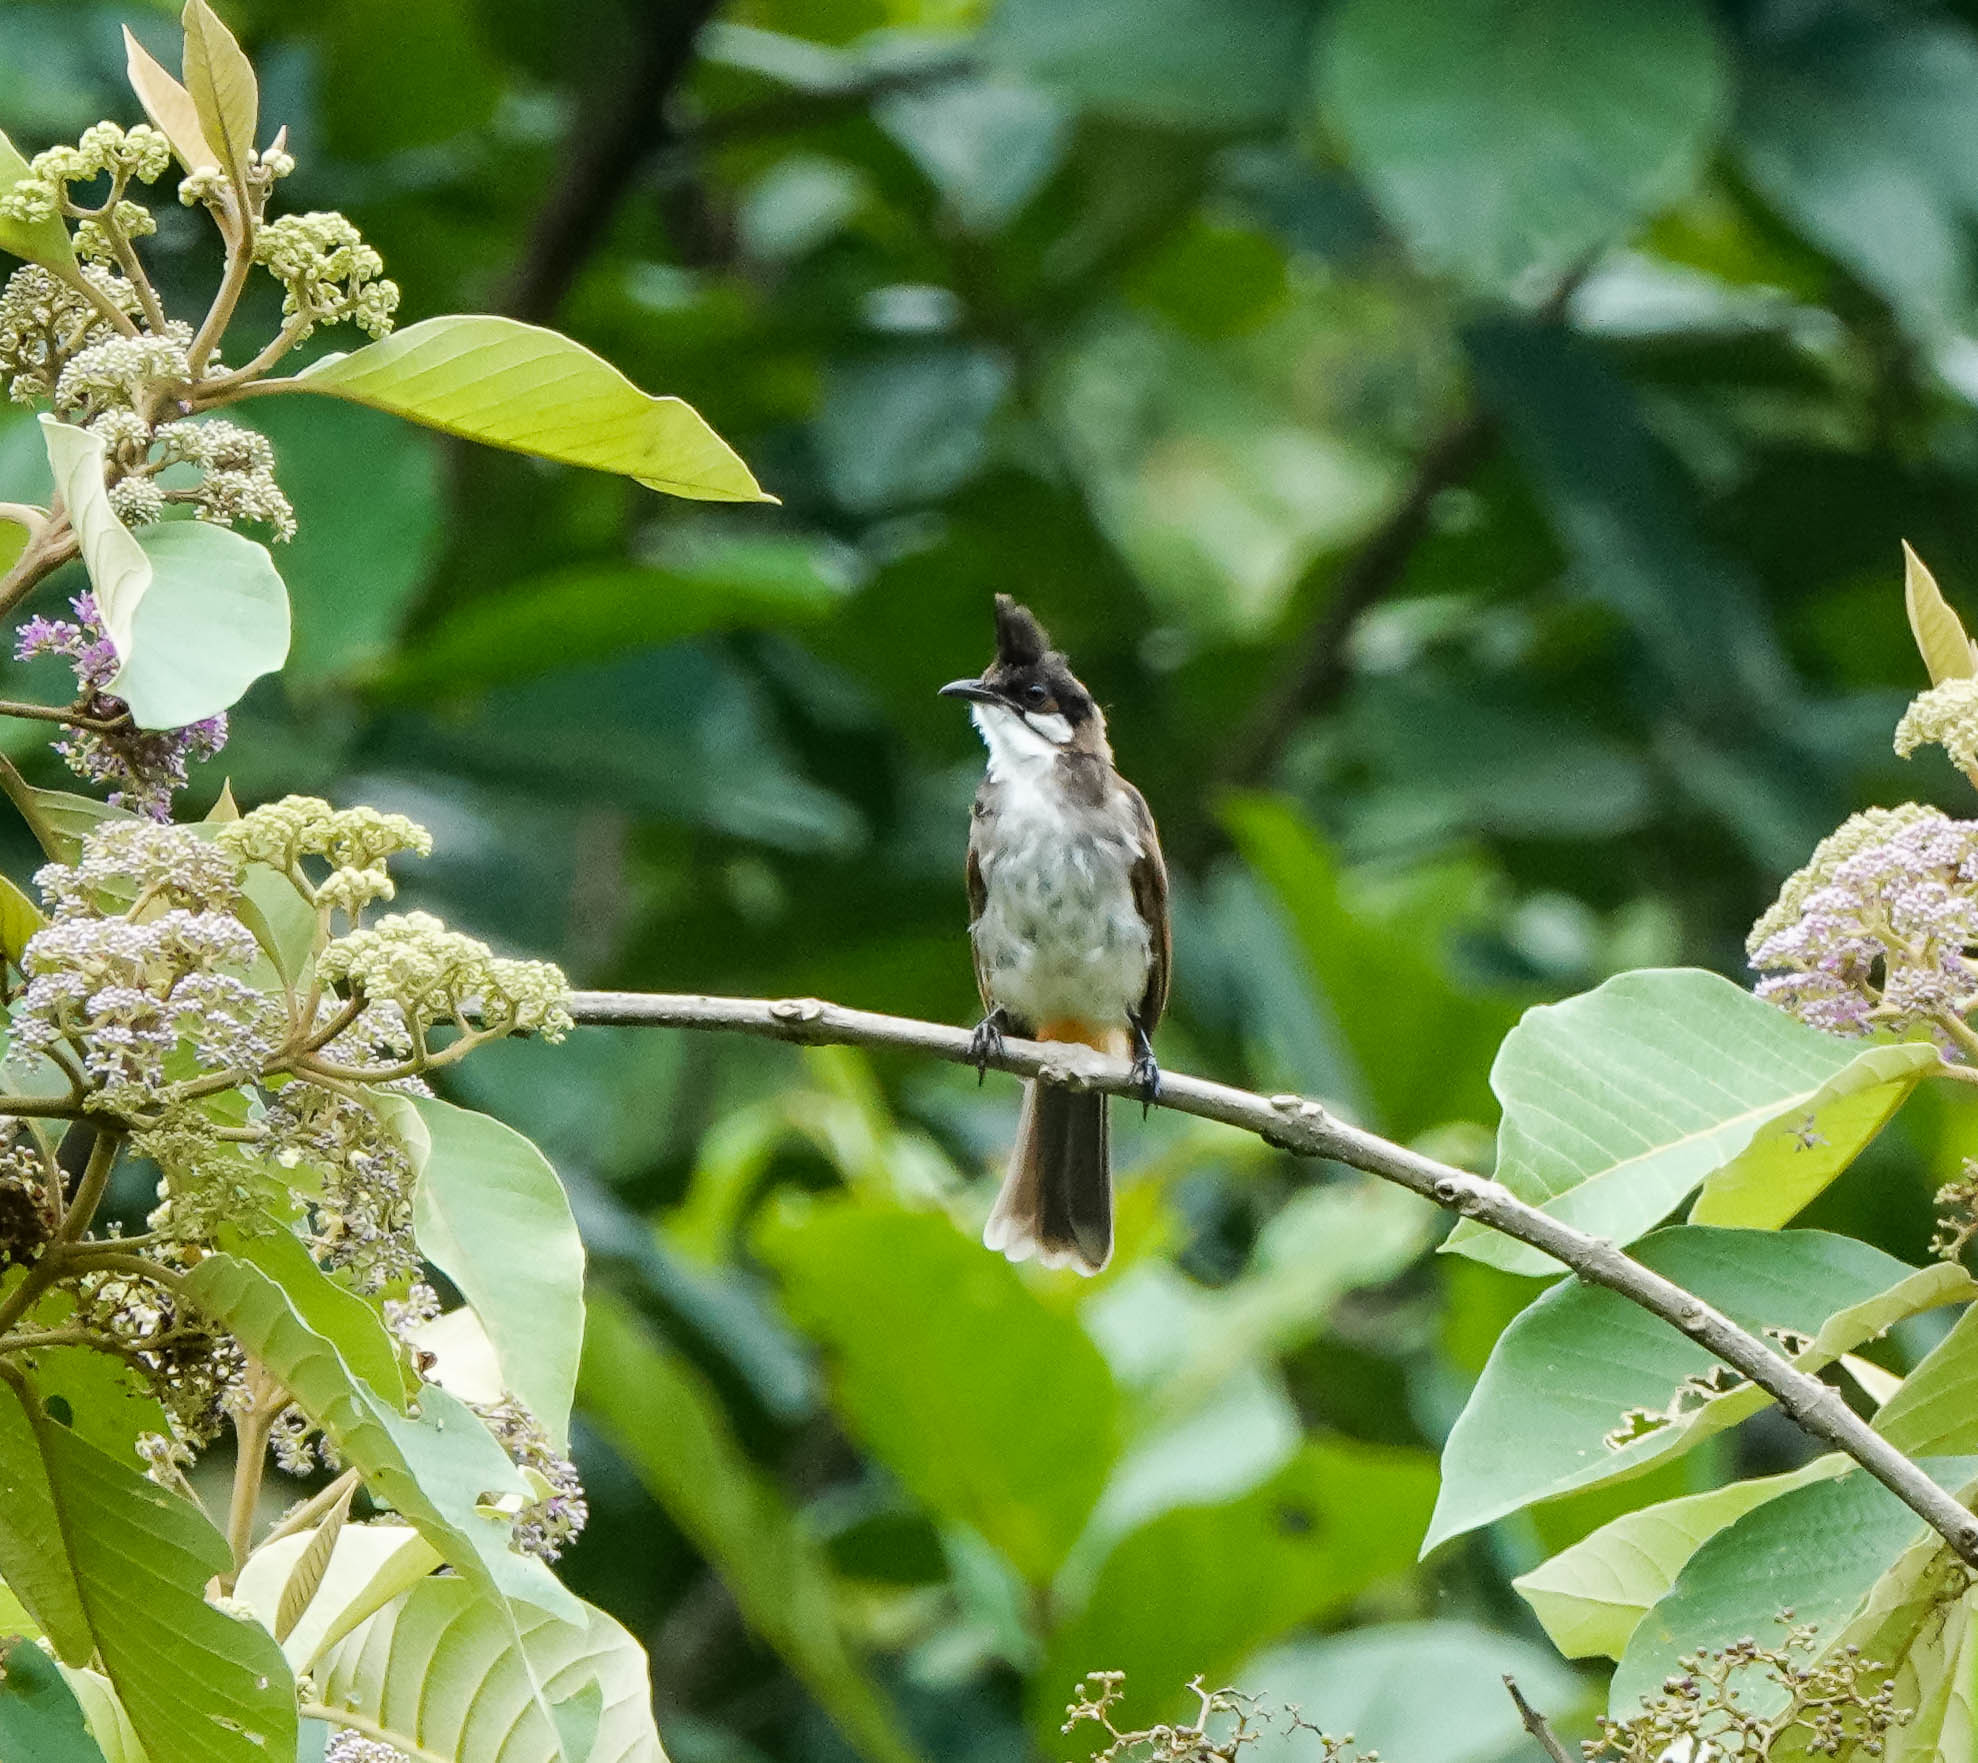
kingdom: Animalia
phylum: Chordata
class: Aves
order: Passeriformes
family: Pycnonotidae
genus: Pycnonotus
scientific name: Pycnonotus jocosus
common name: Red-whiskered bulbul
